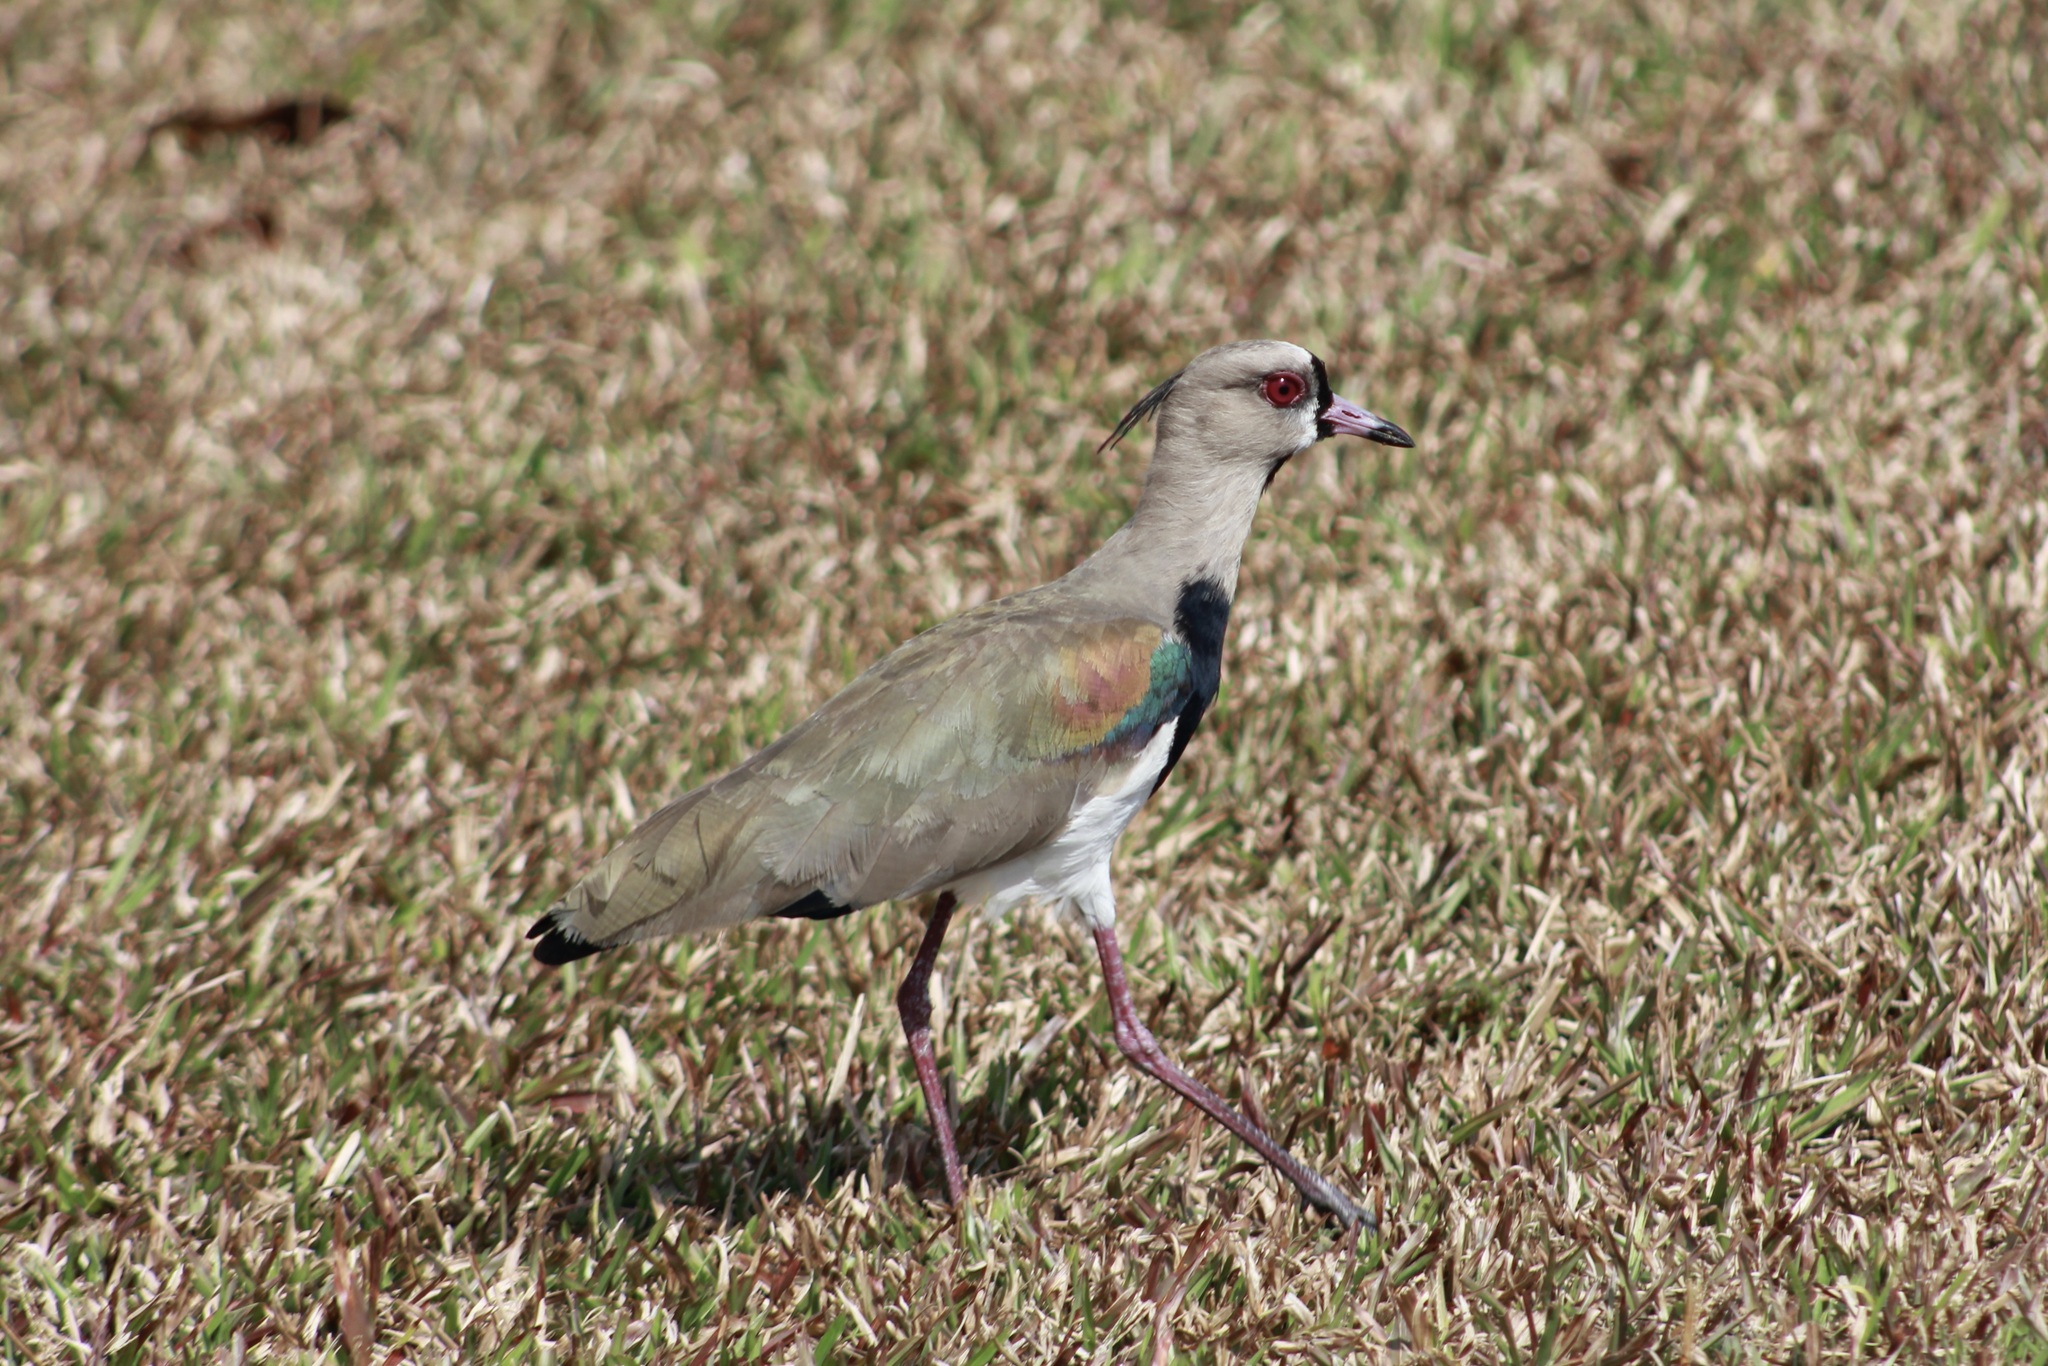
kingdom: Animalia
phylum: Chordata
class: Aves
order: Charadriiformes
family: Charadriidae
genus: Vanellus
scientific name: Vanellus chilensis
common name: Southern lapwing
